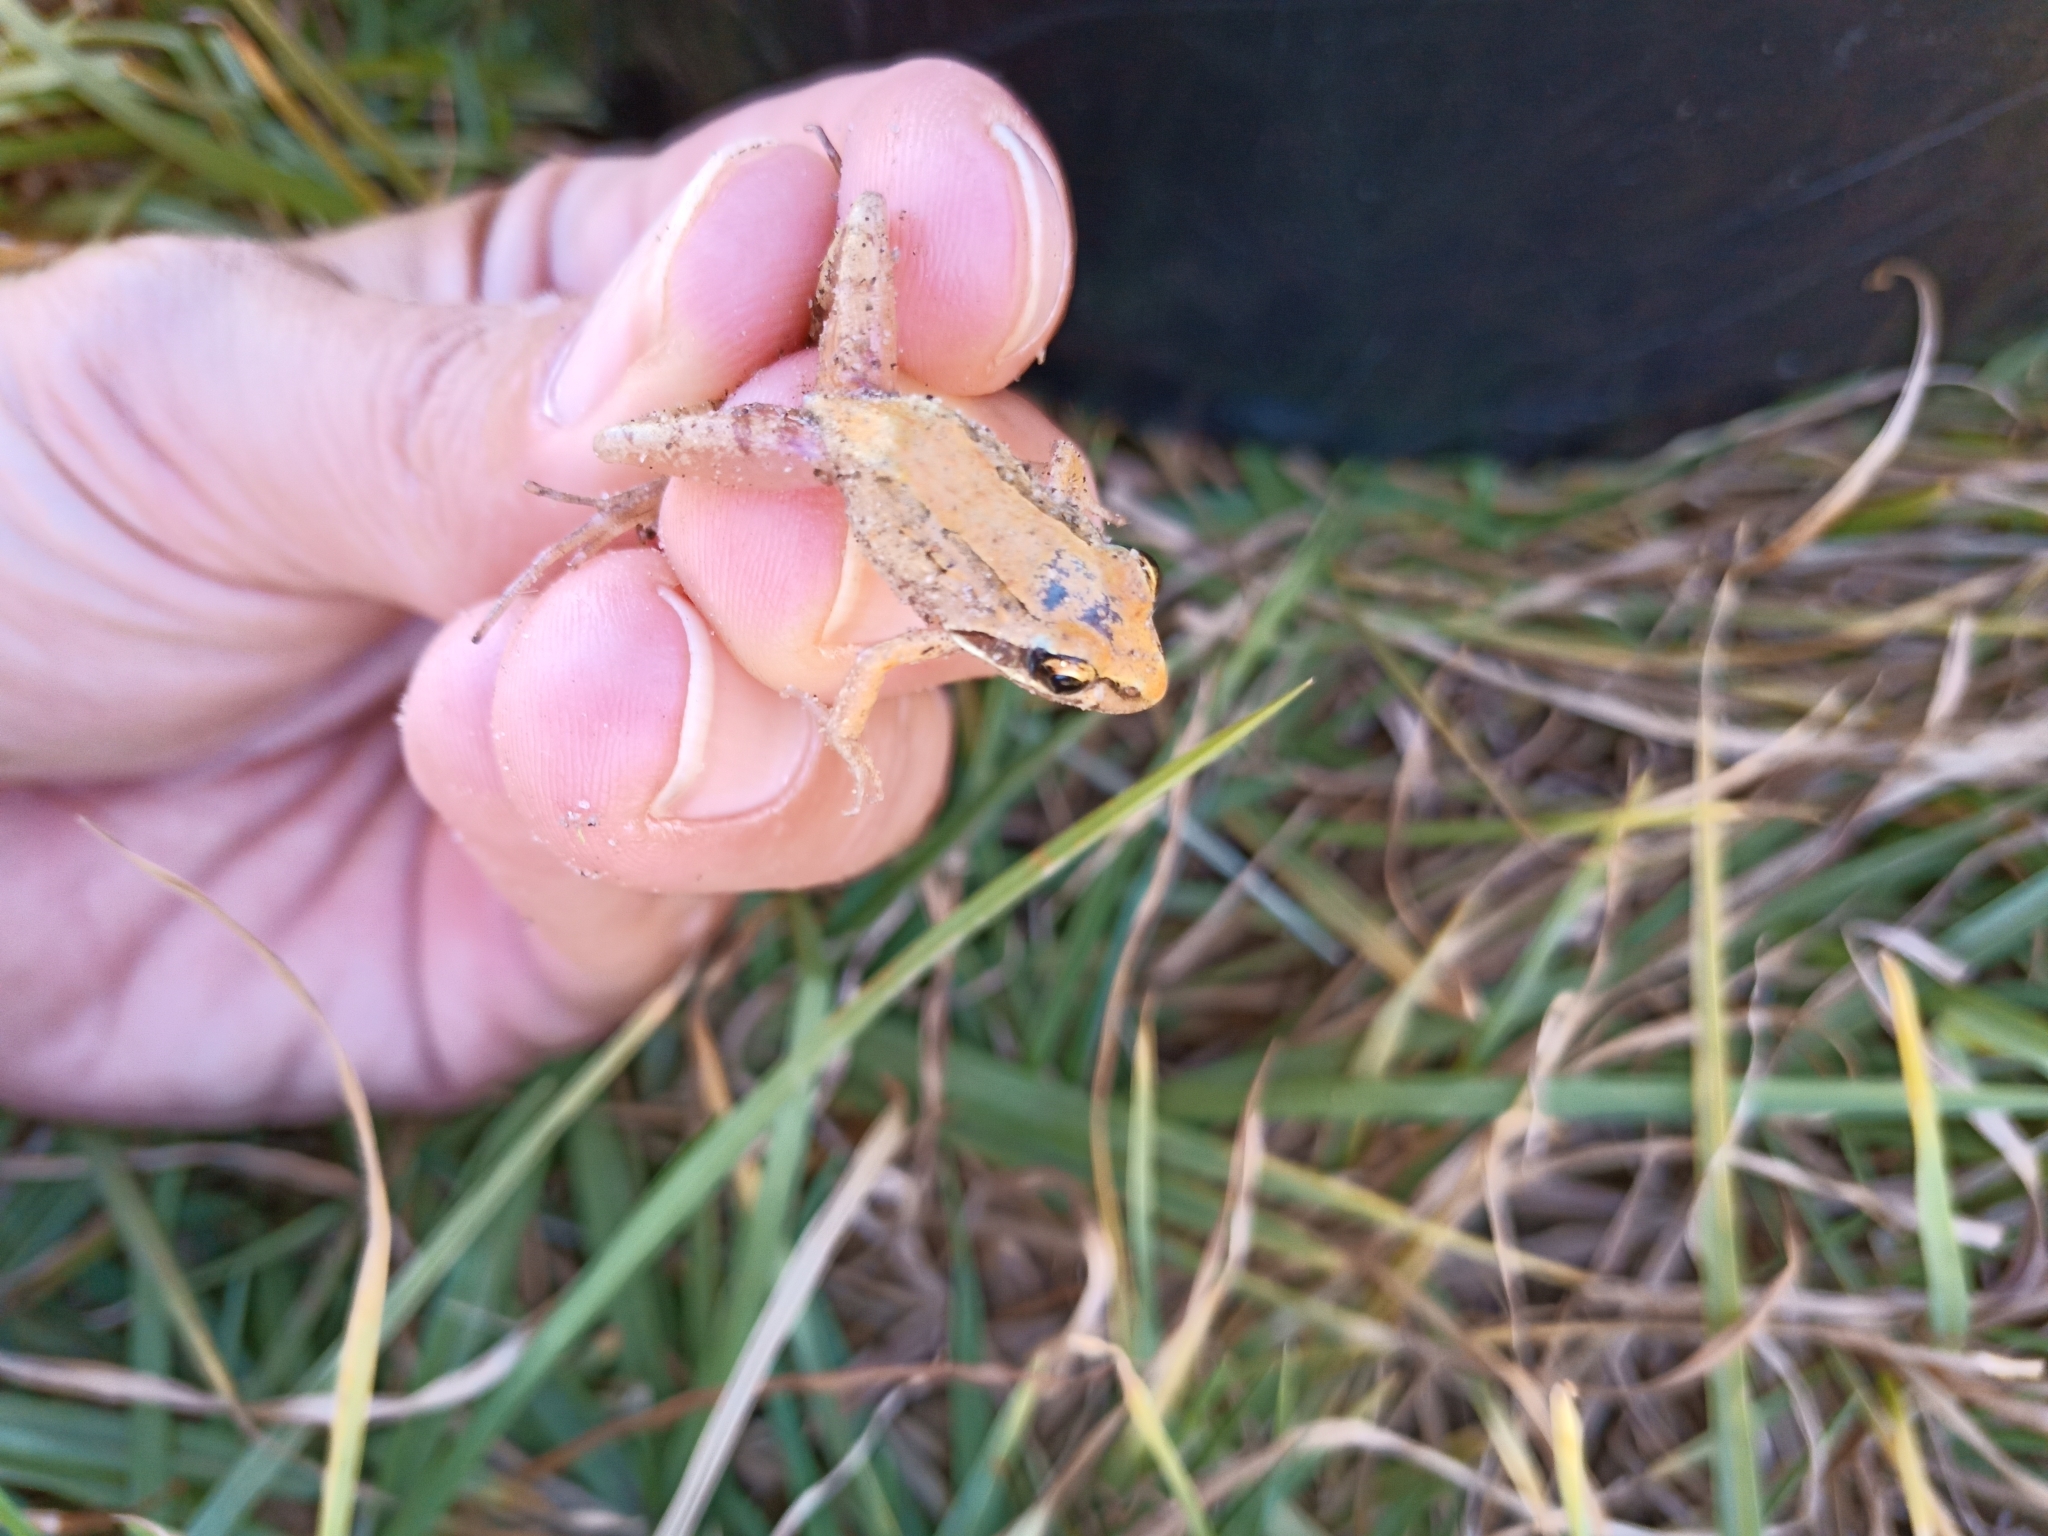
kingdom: Animalia
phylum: Chordata
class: Amphibia
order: Anura
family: Pyxicephalidae
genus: Strongylopus
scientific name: Strongylopus grayii
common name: Gray's stream frog
